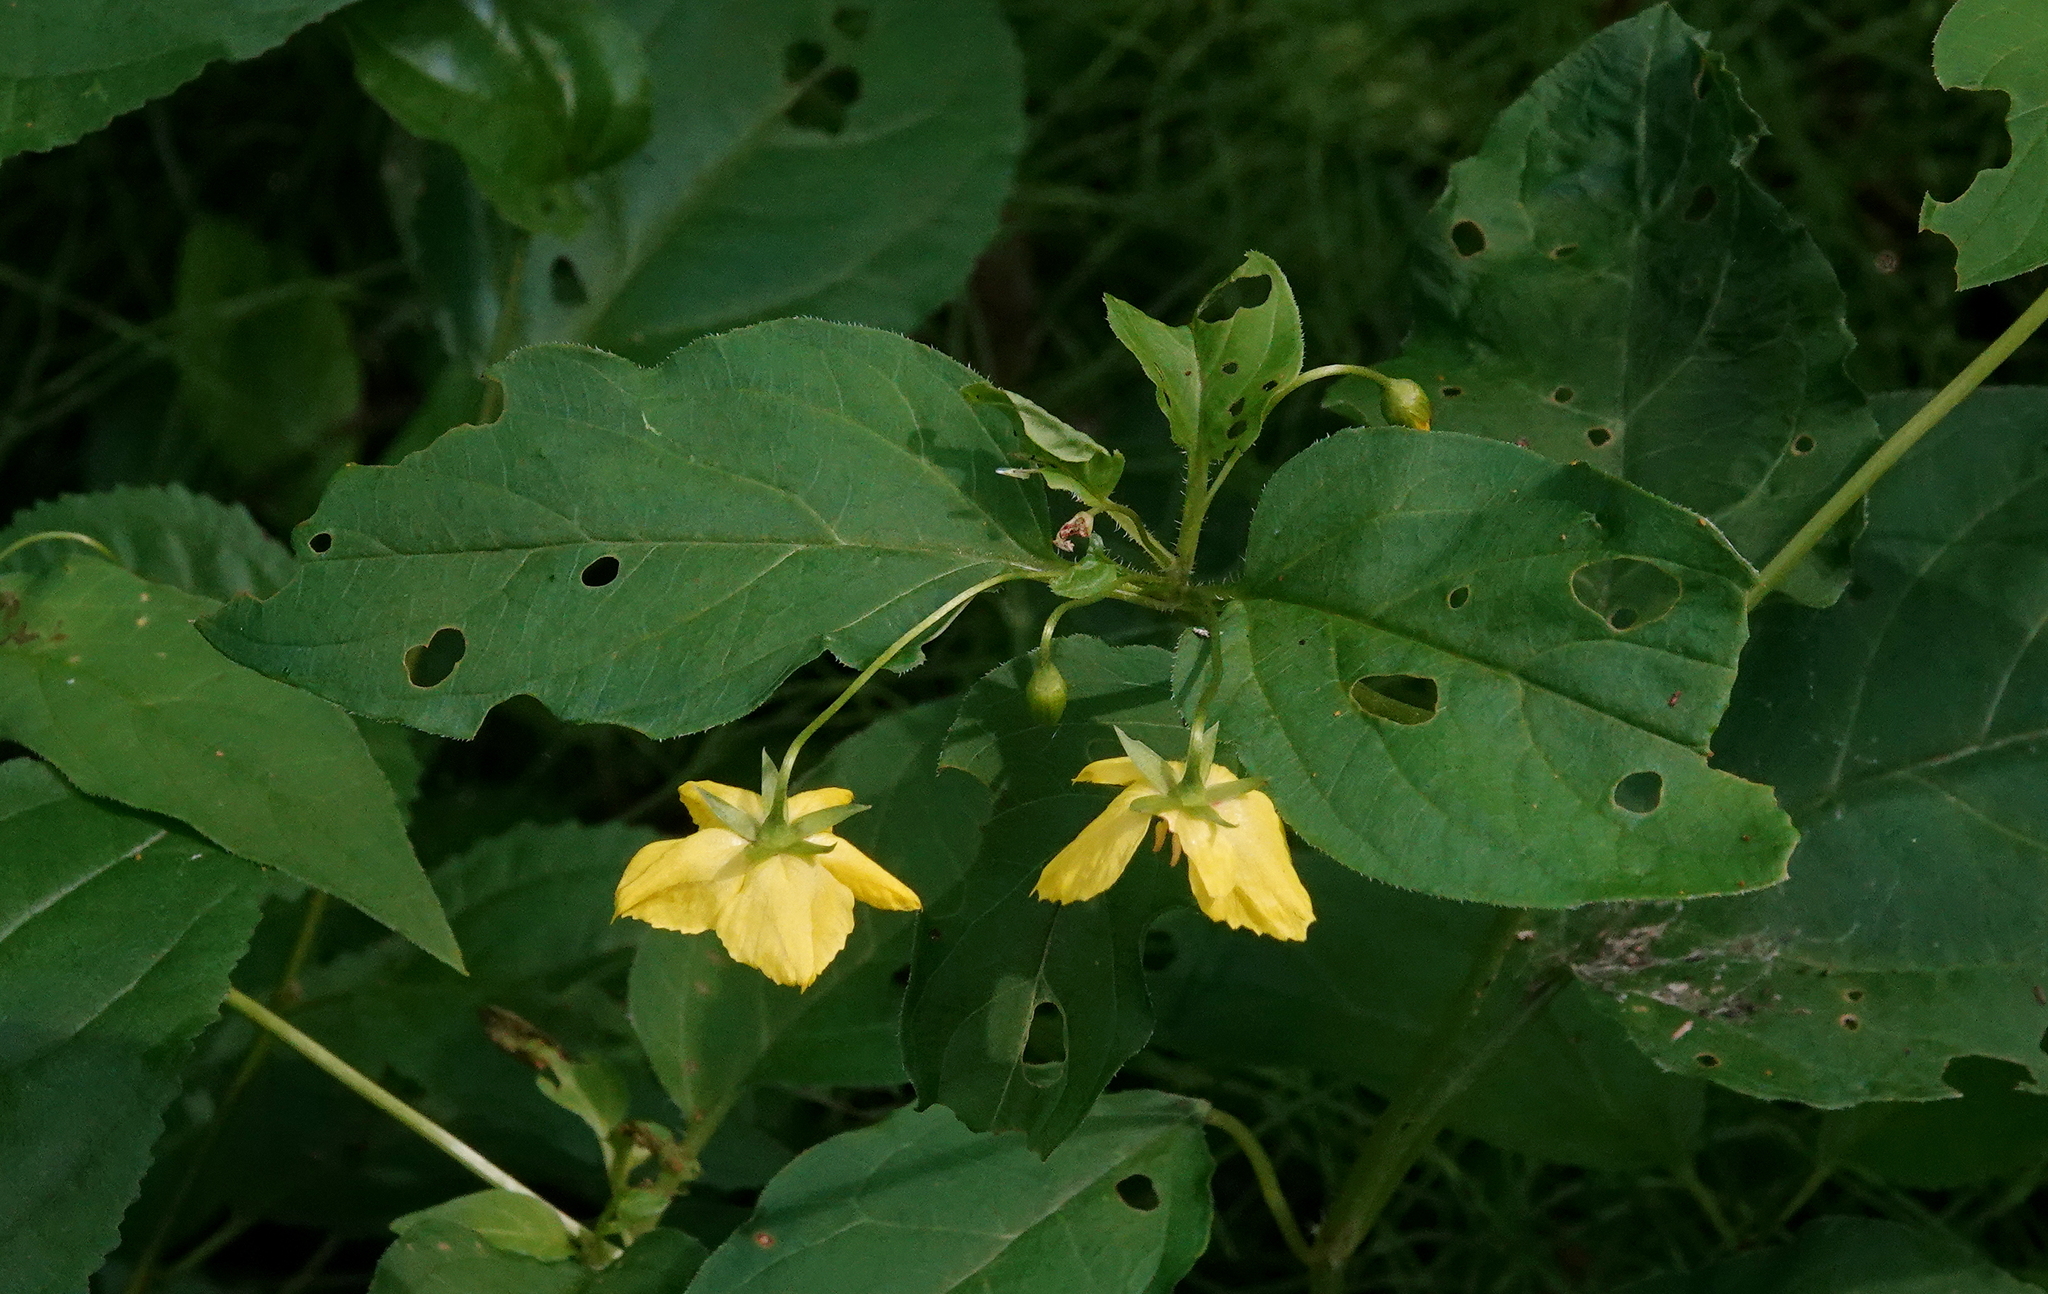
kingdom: Plantae
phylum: Tracheophyta
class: Magnoliopsida
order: Ericales
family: Primulaceae
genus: Lysimachia
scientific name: Lysimachia ciliata
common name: Fringed loosestrife
